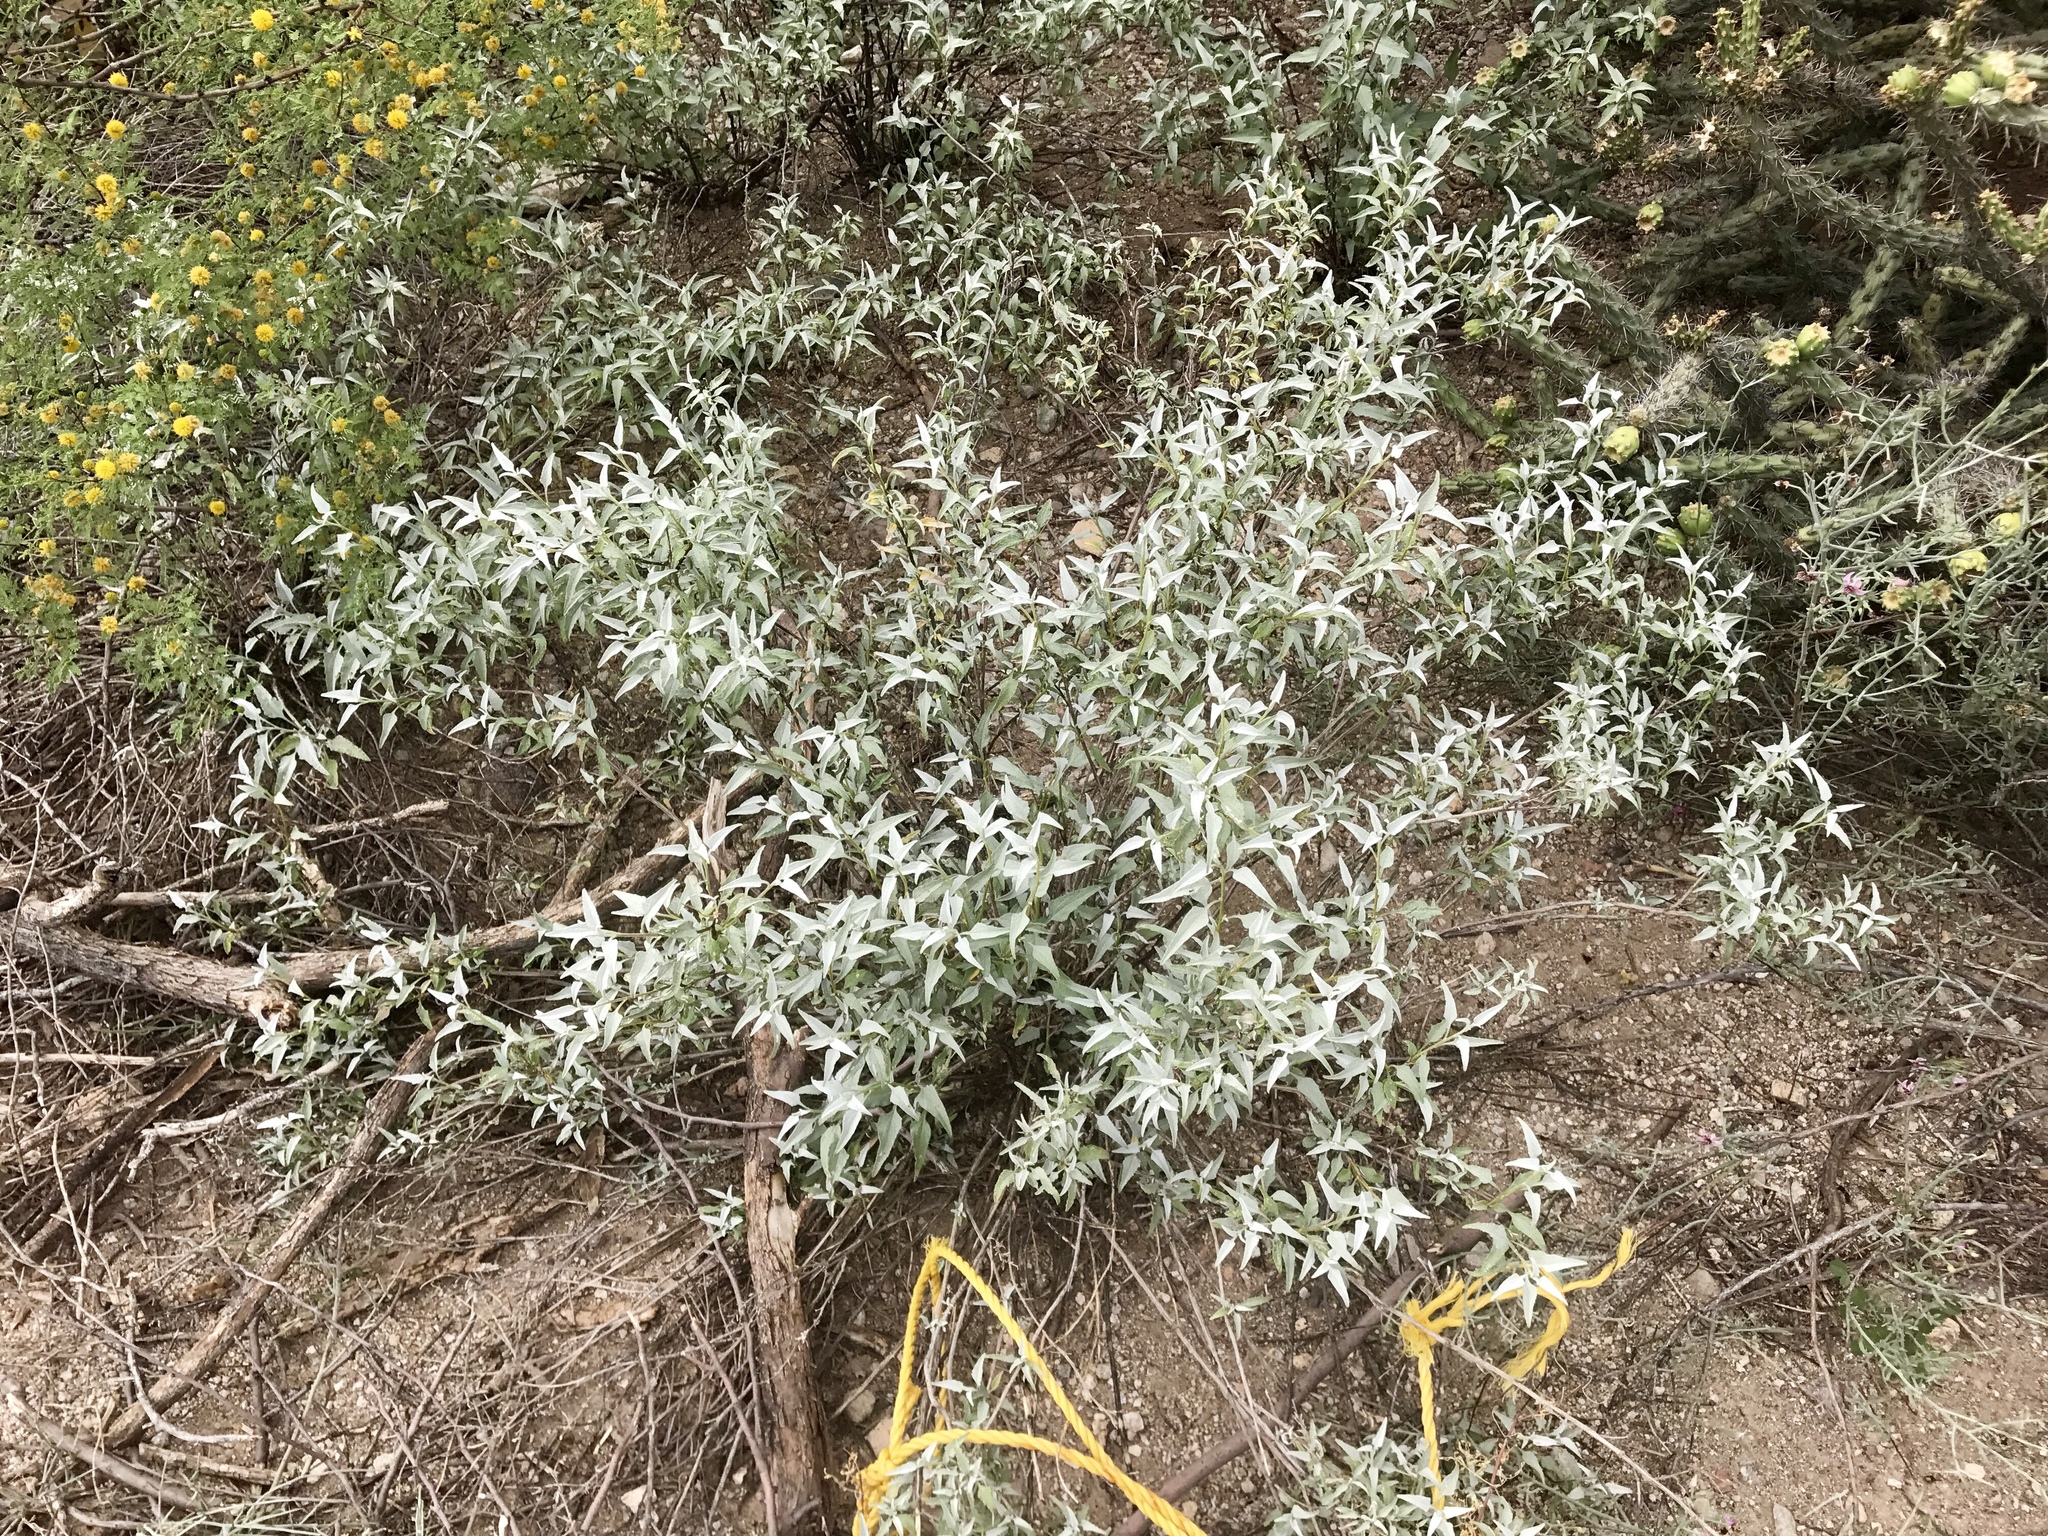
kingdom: Plantae
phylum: Tracheophyta
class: Magnoliopsida
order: Asterales
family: Asteraceae
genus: Ambrosia
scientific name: Ambrosia deltoidea
